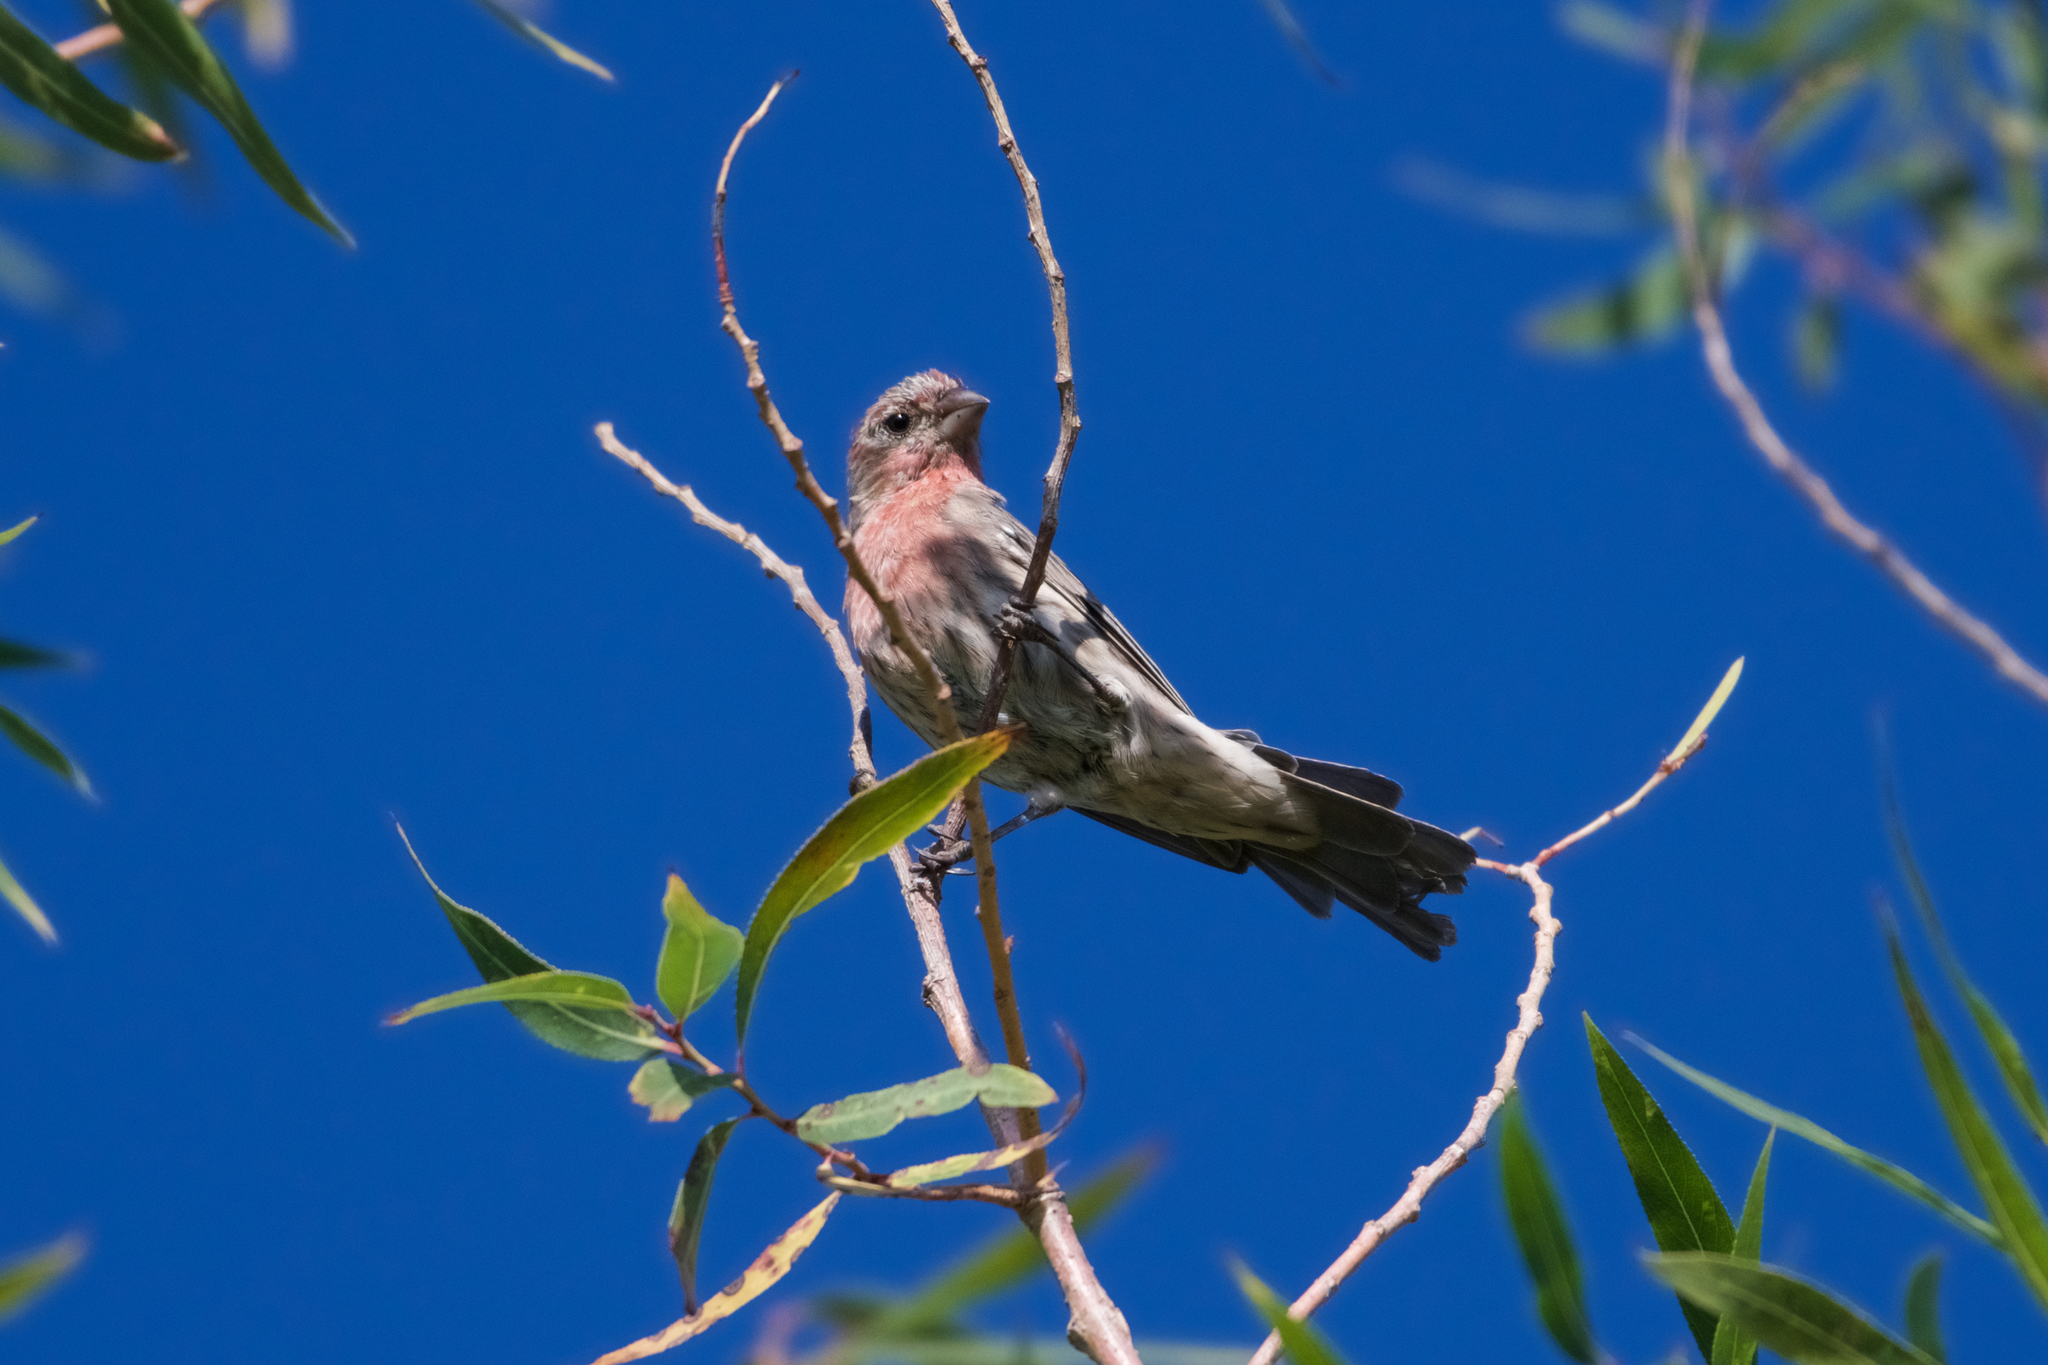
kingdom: Animalia
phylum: Chordata
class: Aves
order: Passeriformes
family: Fringillidae
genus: Haemorhous
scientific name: Haemorhous mexicanus
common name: House finch
